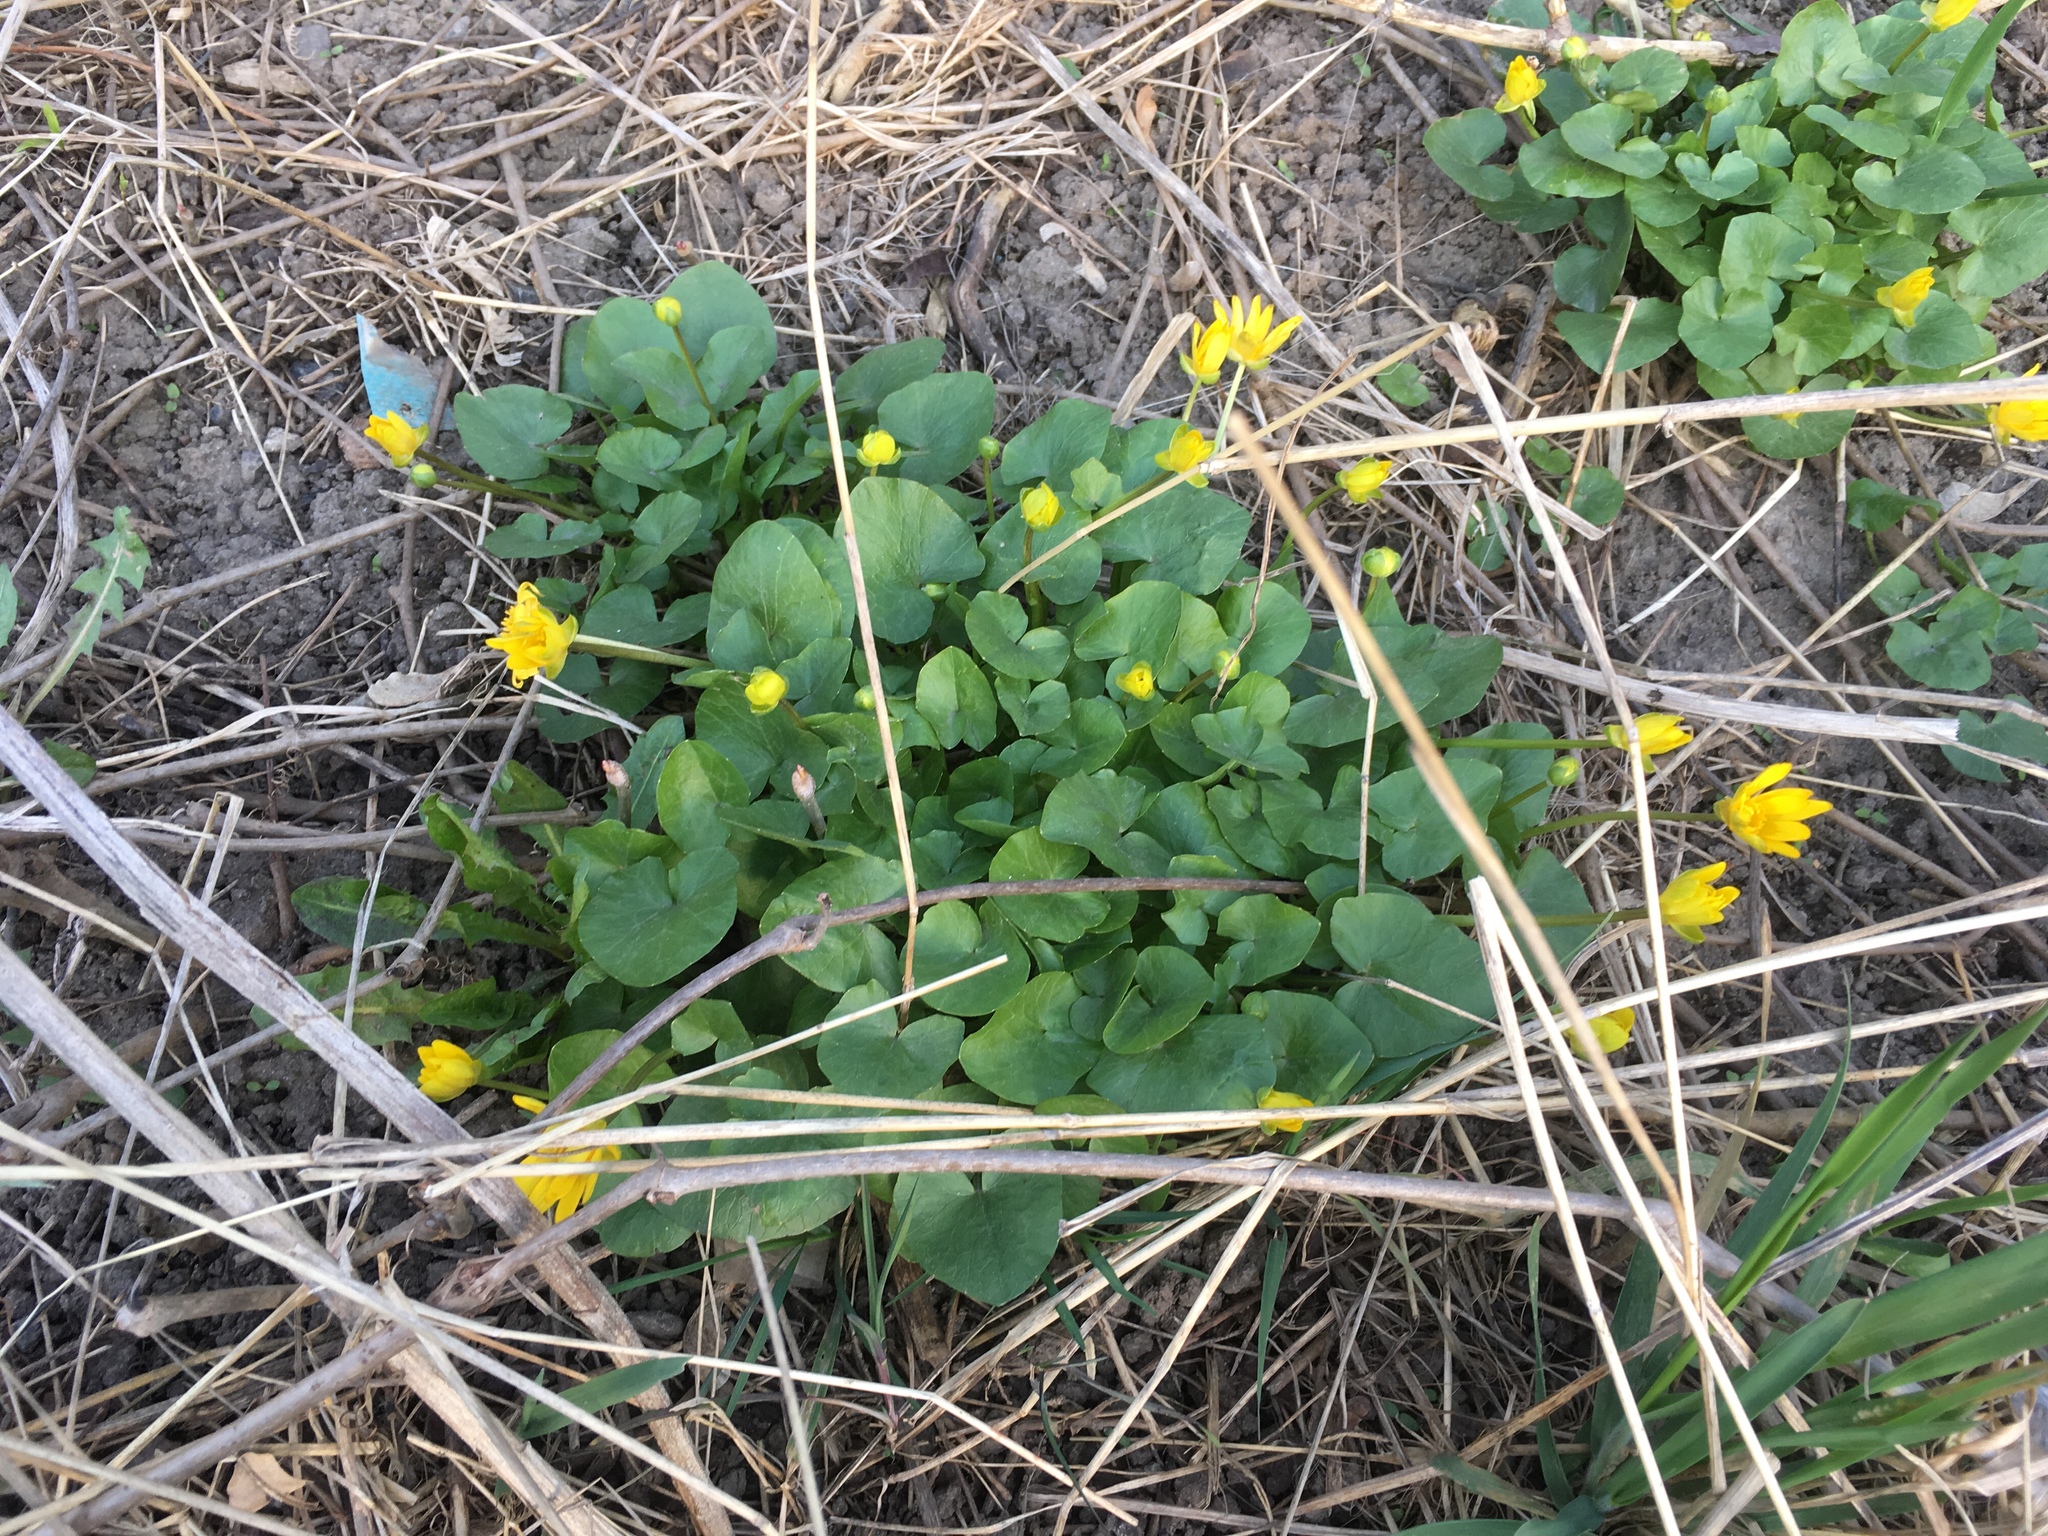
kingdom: Plantae
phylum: Tracheophyta
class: Magnoliopsida
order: Ranunculales
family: Ranunculaceae
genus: Ficaria
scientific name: Ficaria verna
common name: Lesser celandine
